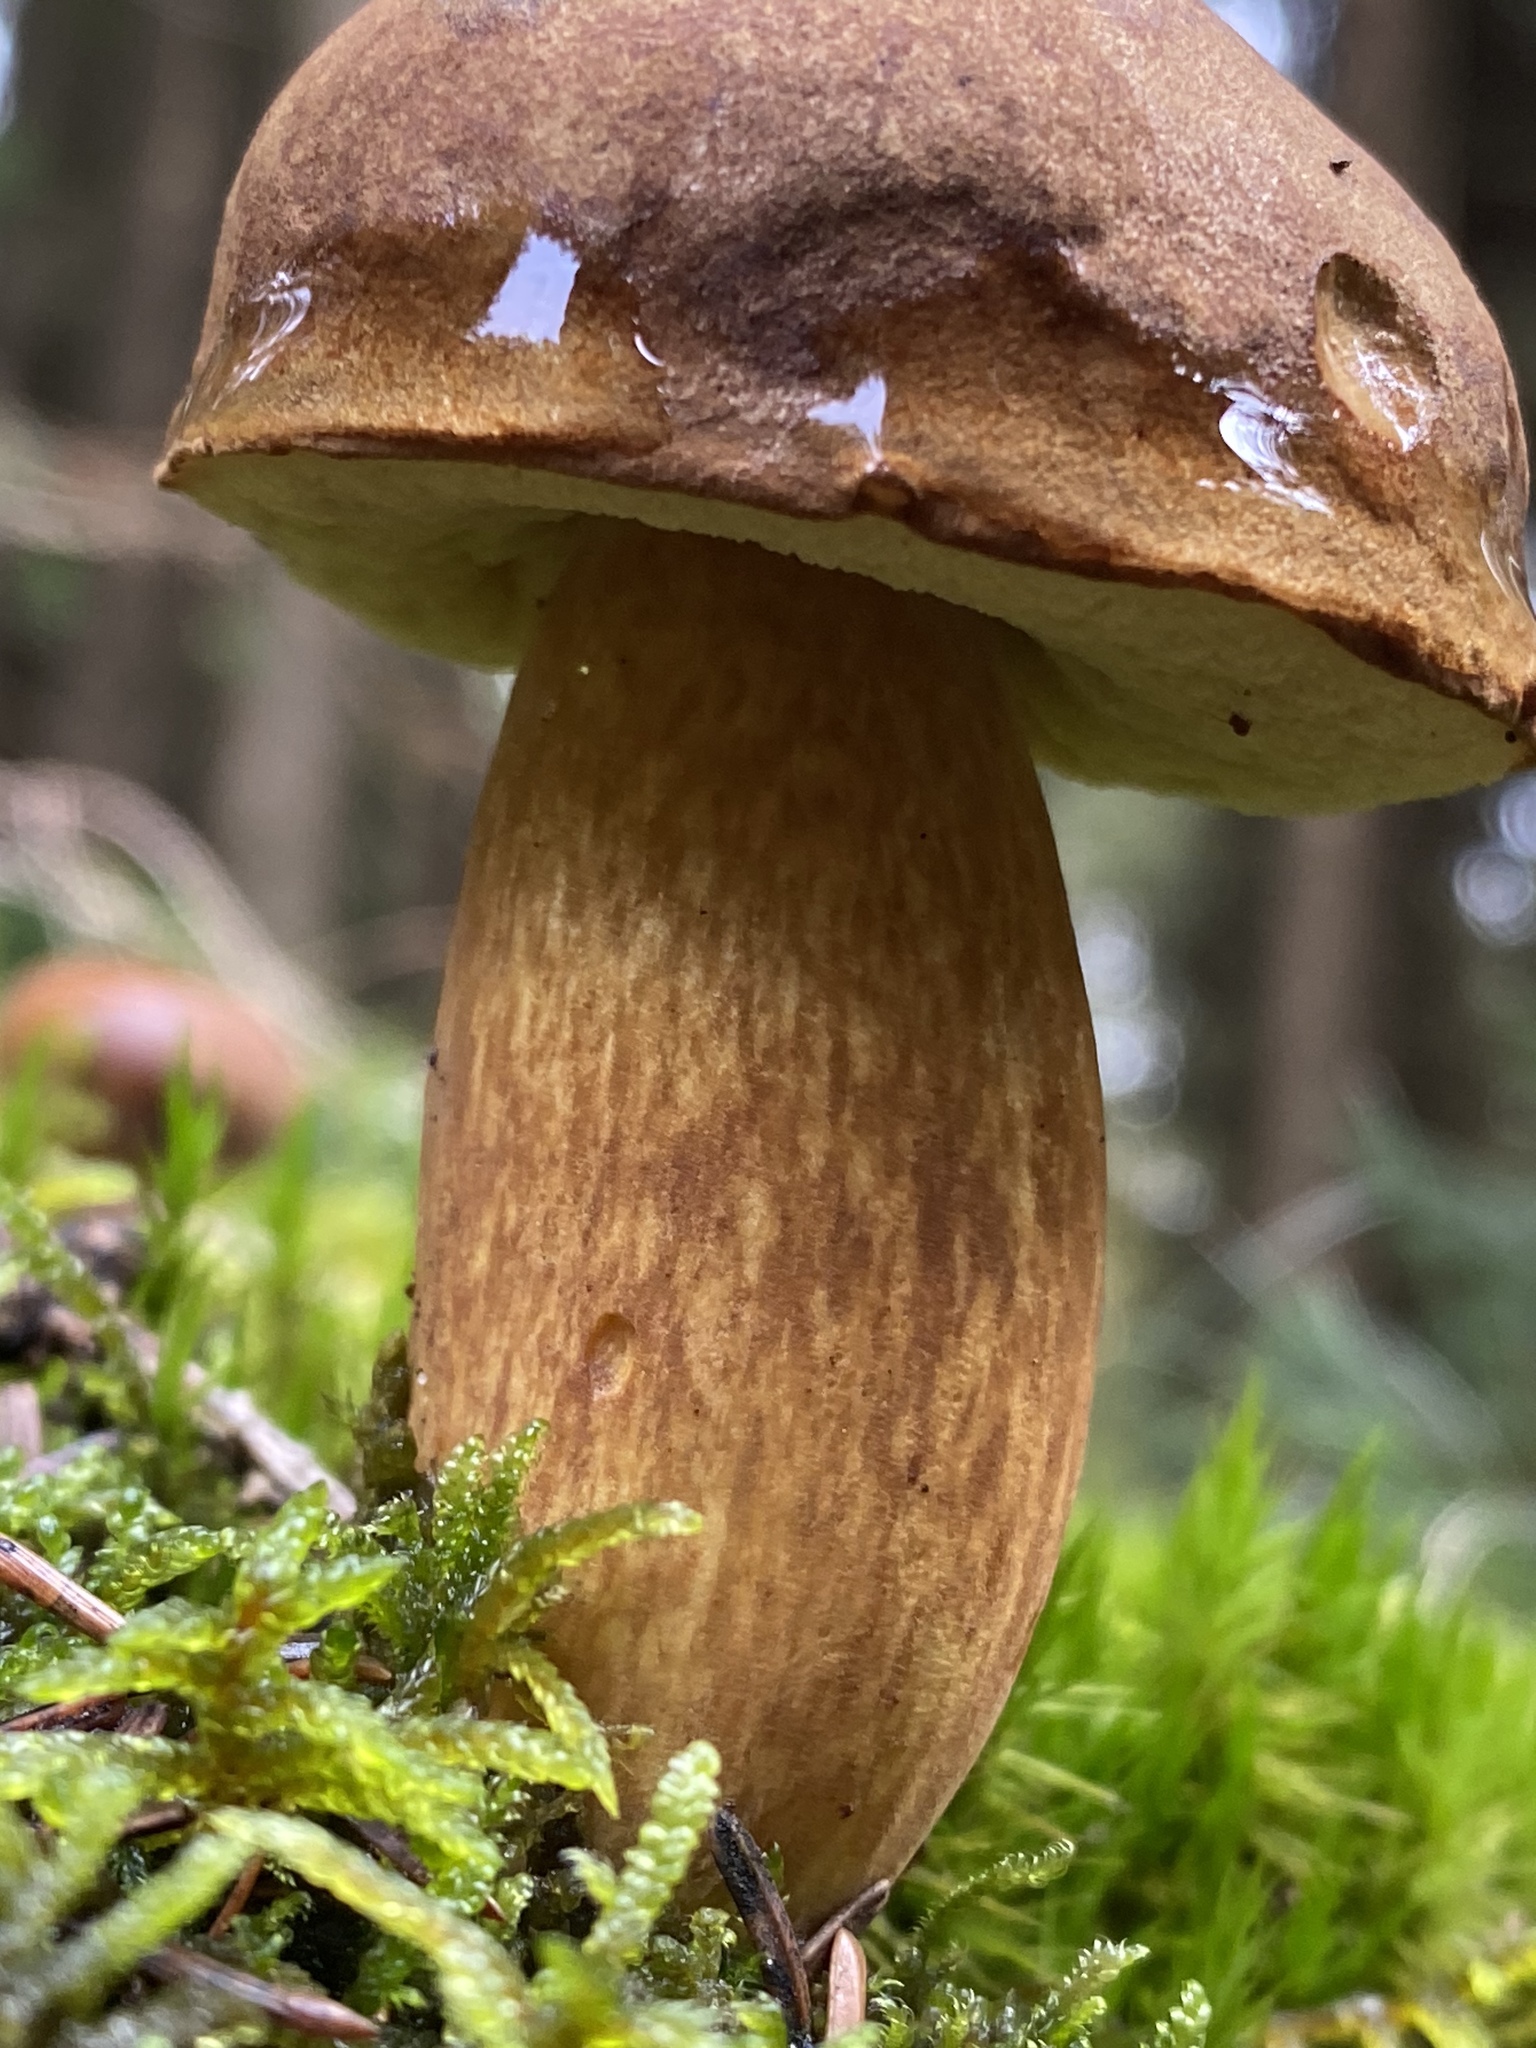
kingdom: Fungi
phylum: Basidiomycota
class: Agaricomycetes
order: Boletales
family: Boletaceae
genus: Imleria
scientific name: Imleria badia
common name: Bay bolete
